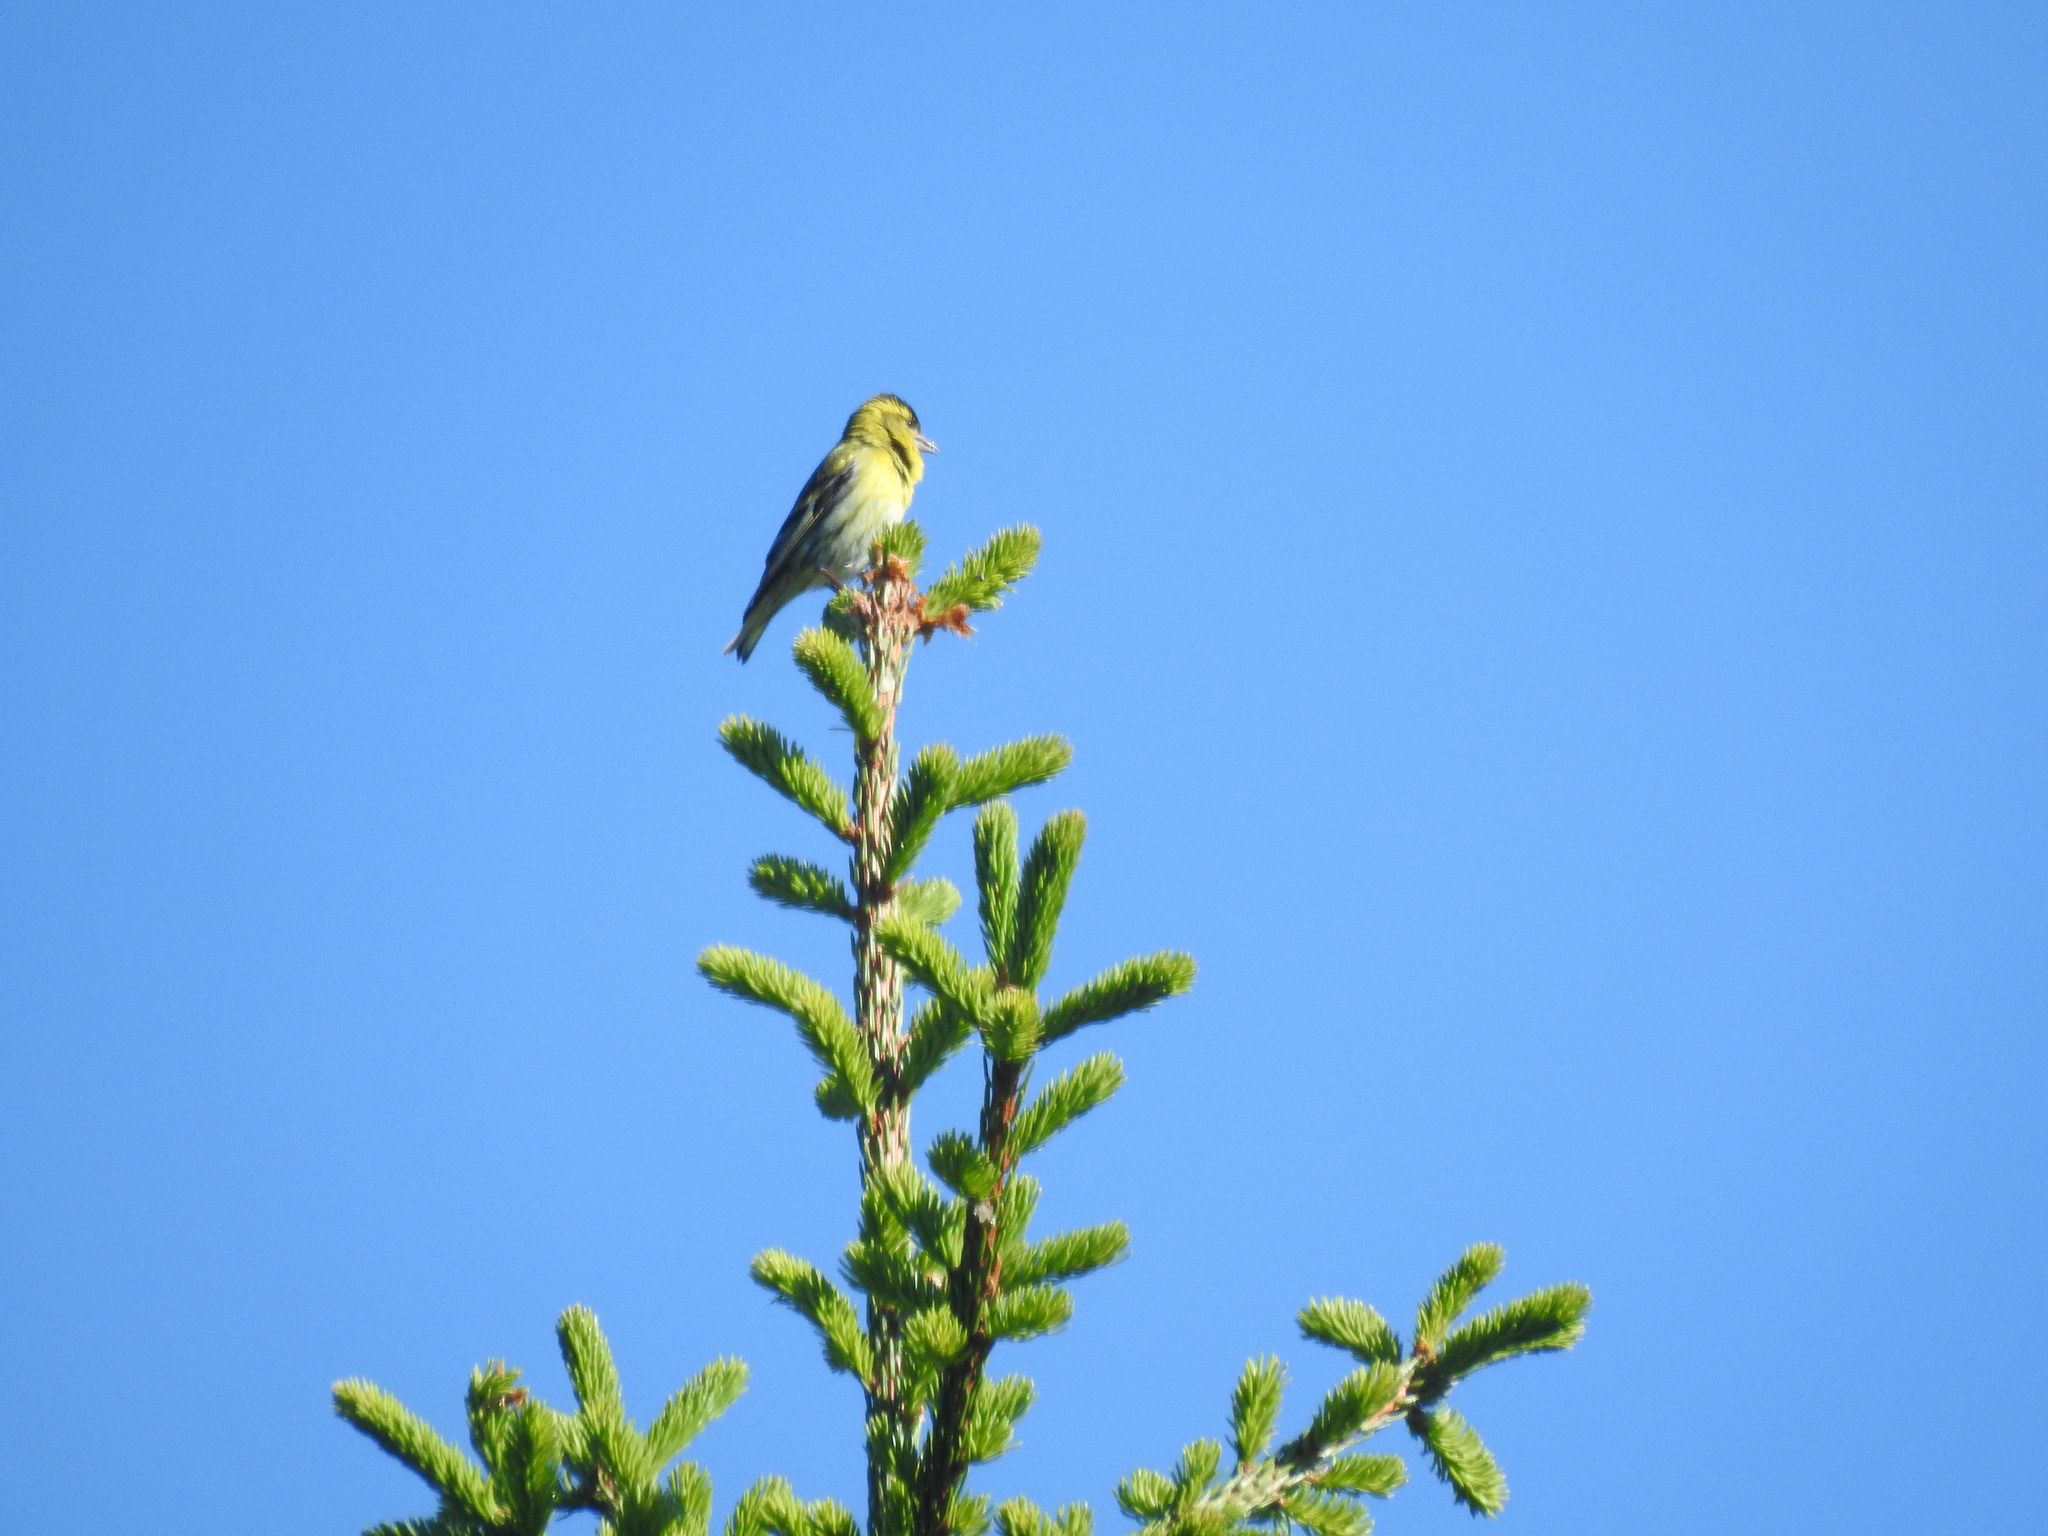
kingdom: Animalia
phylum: Chordata
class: Aves
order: Passeriformes
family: Fringillidae
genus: Spinus
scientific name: Spinus spinus
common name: Eurasian siskin
